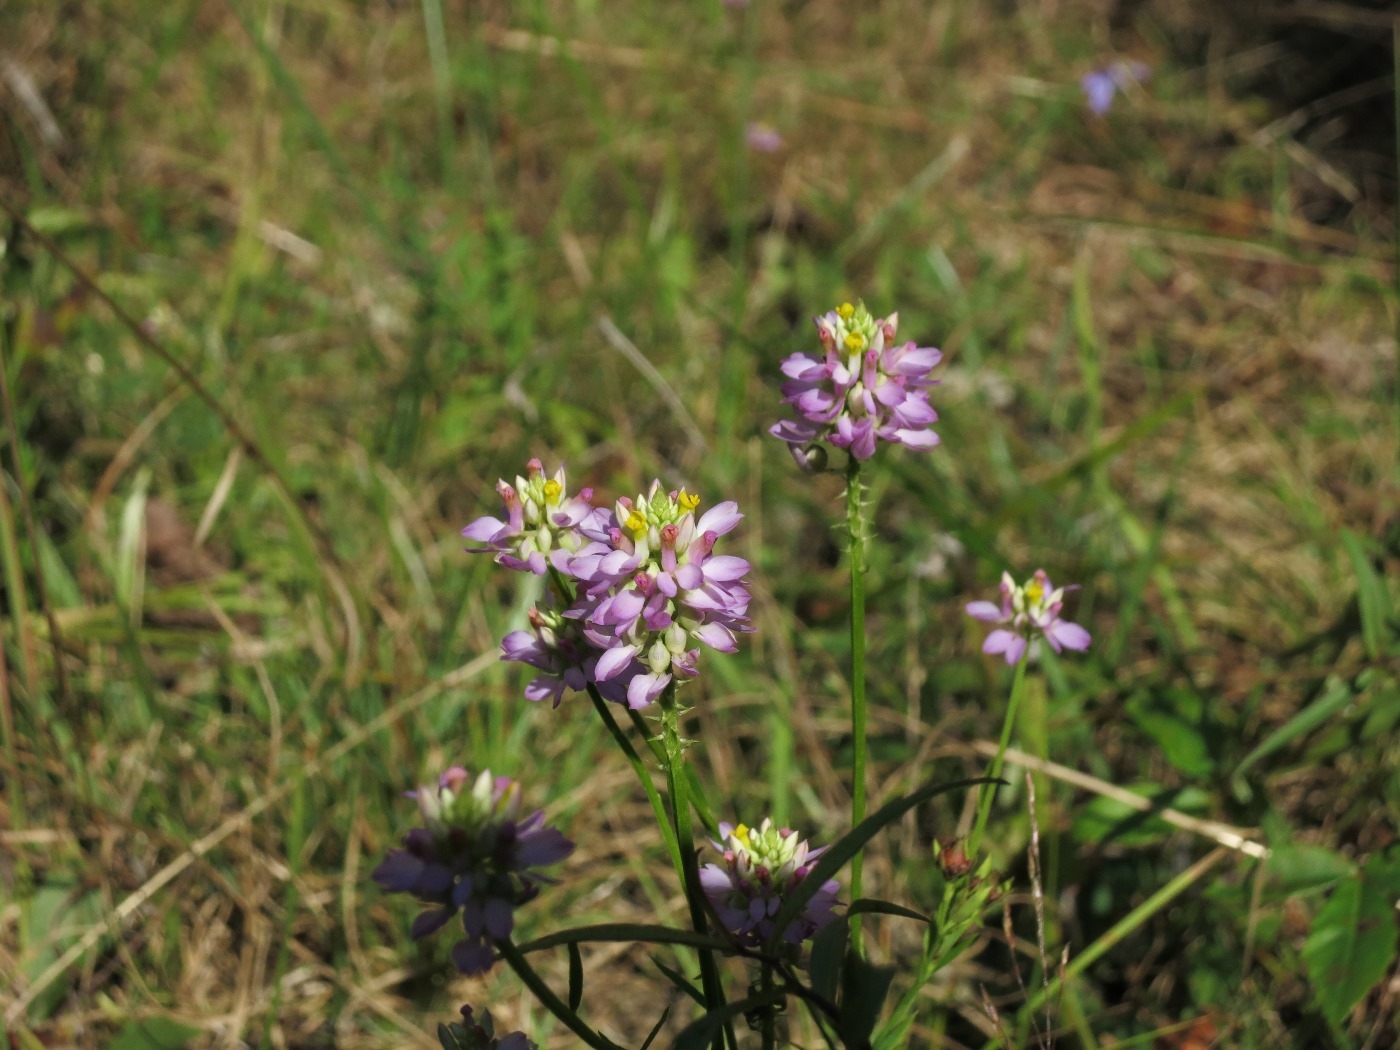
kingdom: Plantae
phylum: Tracheophyta
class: Magnoliopsida
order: Fabales
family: Polygalaceae
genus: Polygala
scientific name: Polygala curtissii
